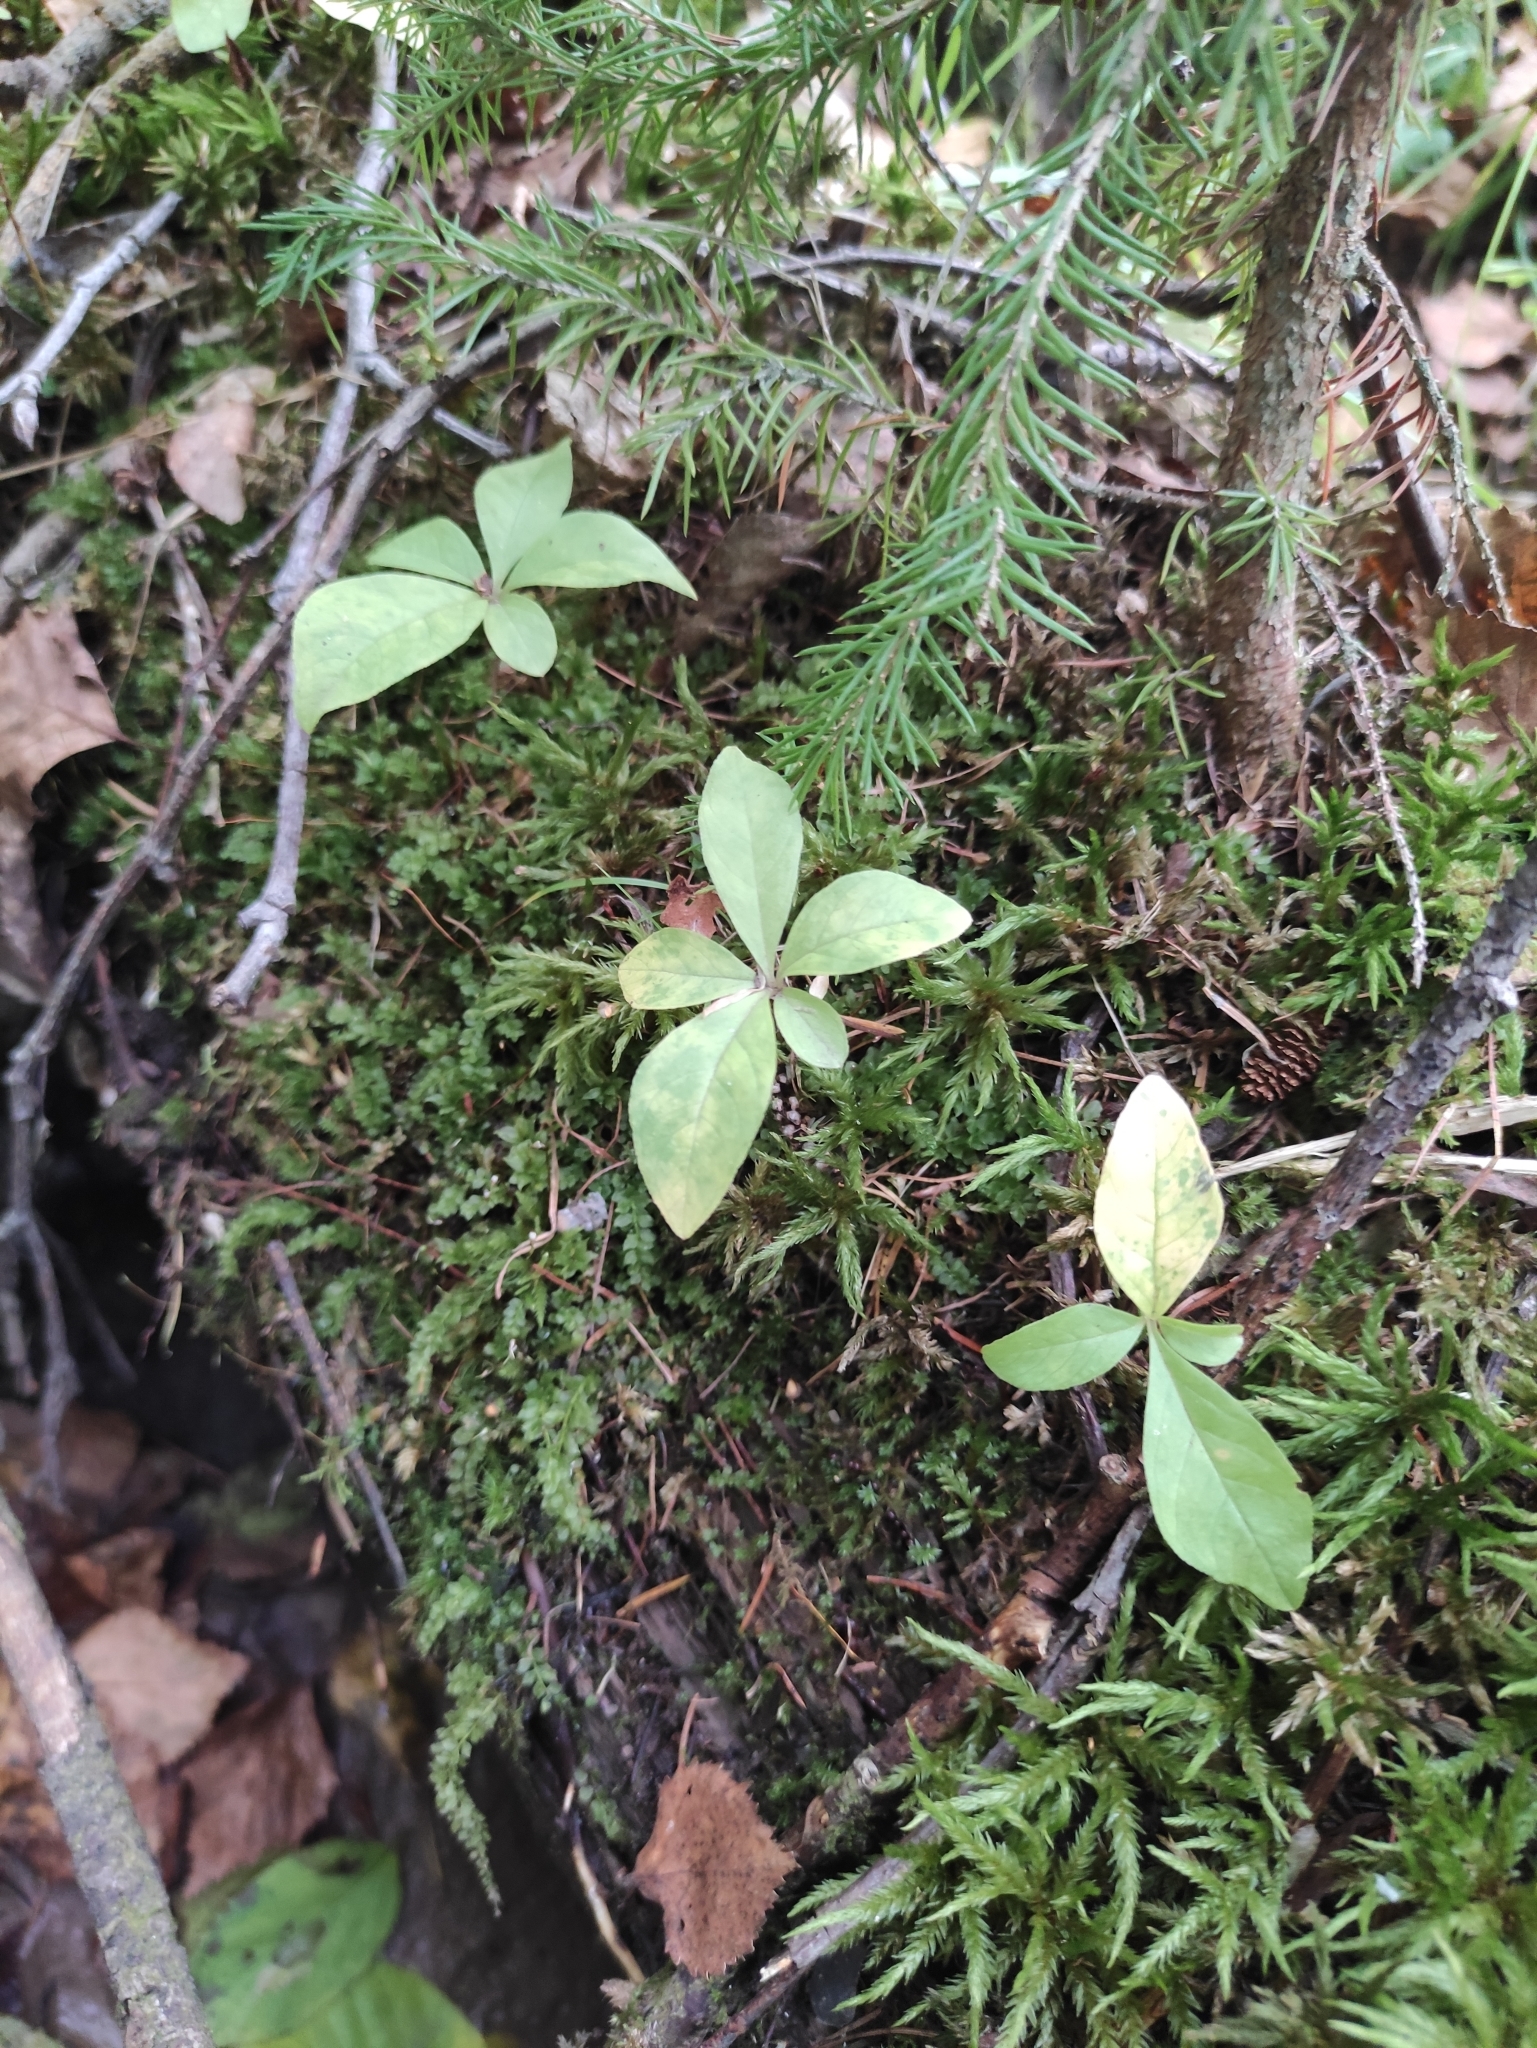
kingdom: Plantae
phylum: Tracheophyta
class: Magnoliopsida
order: Ericales
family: Primulaceae
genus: Lysimachia
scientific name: Lysimachia europaea
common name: Arctic starflower
